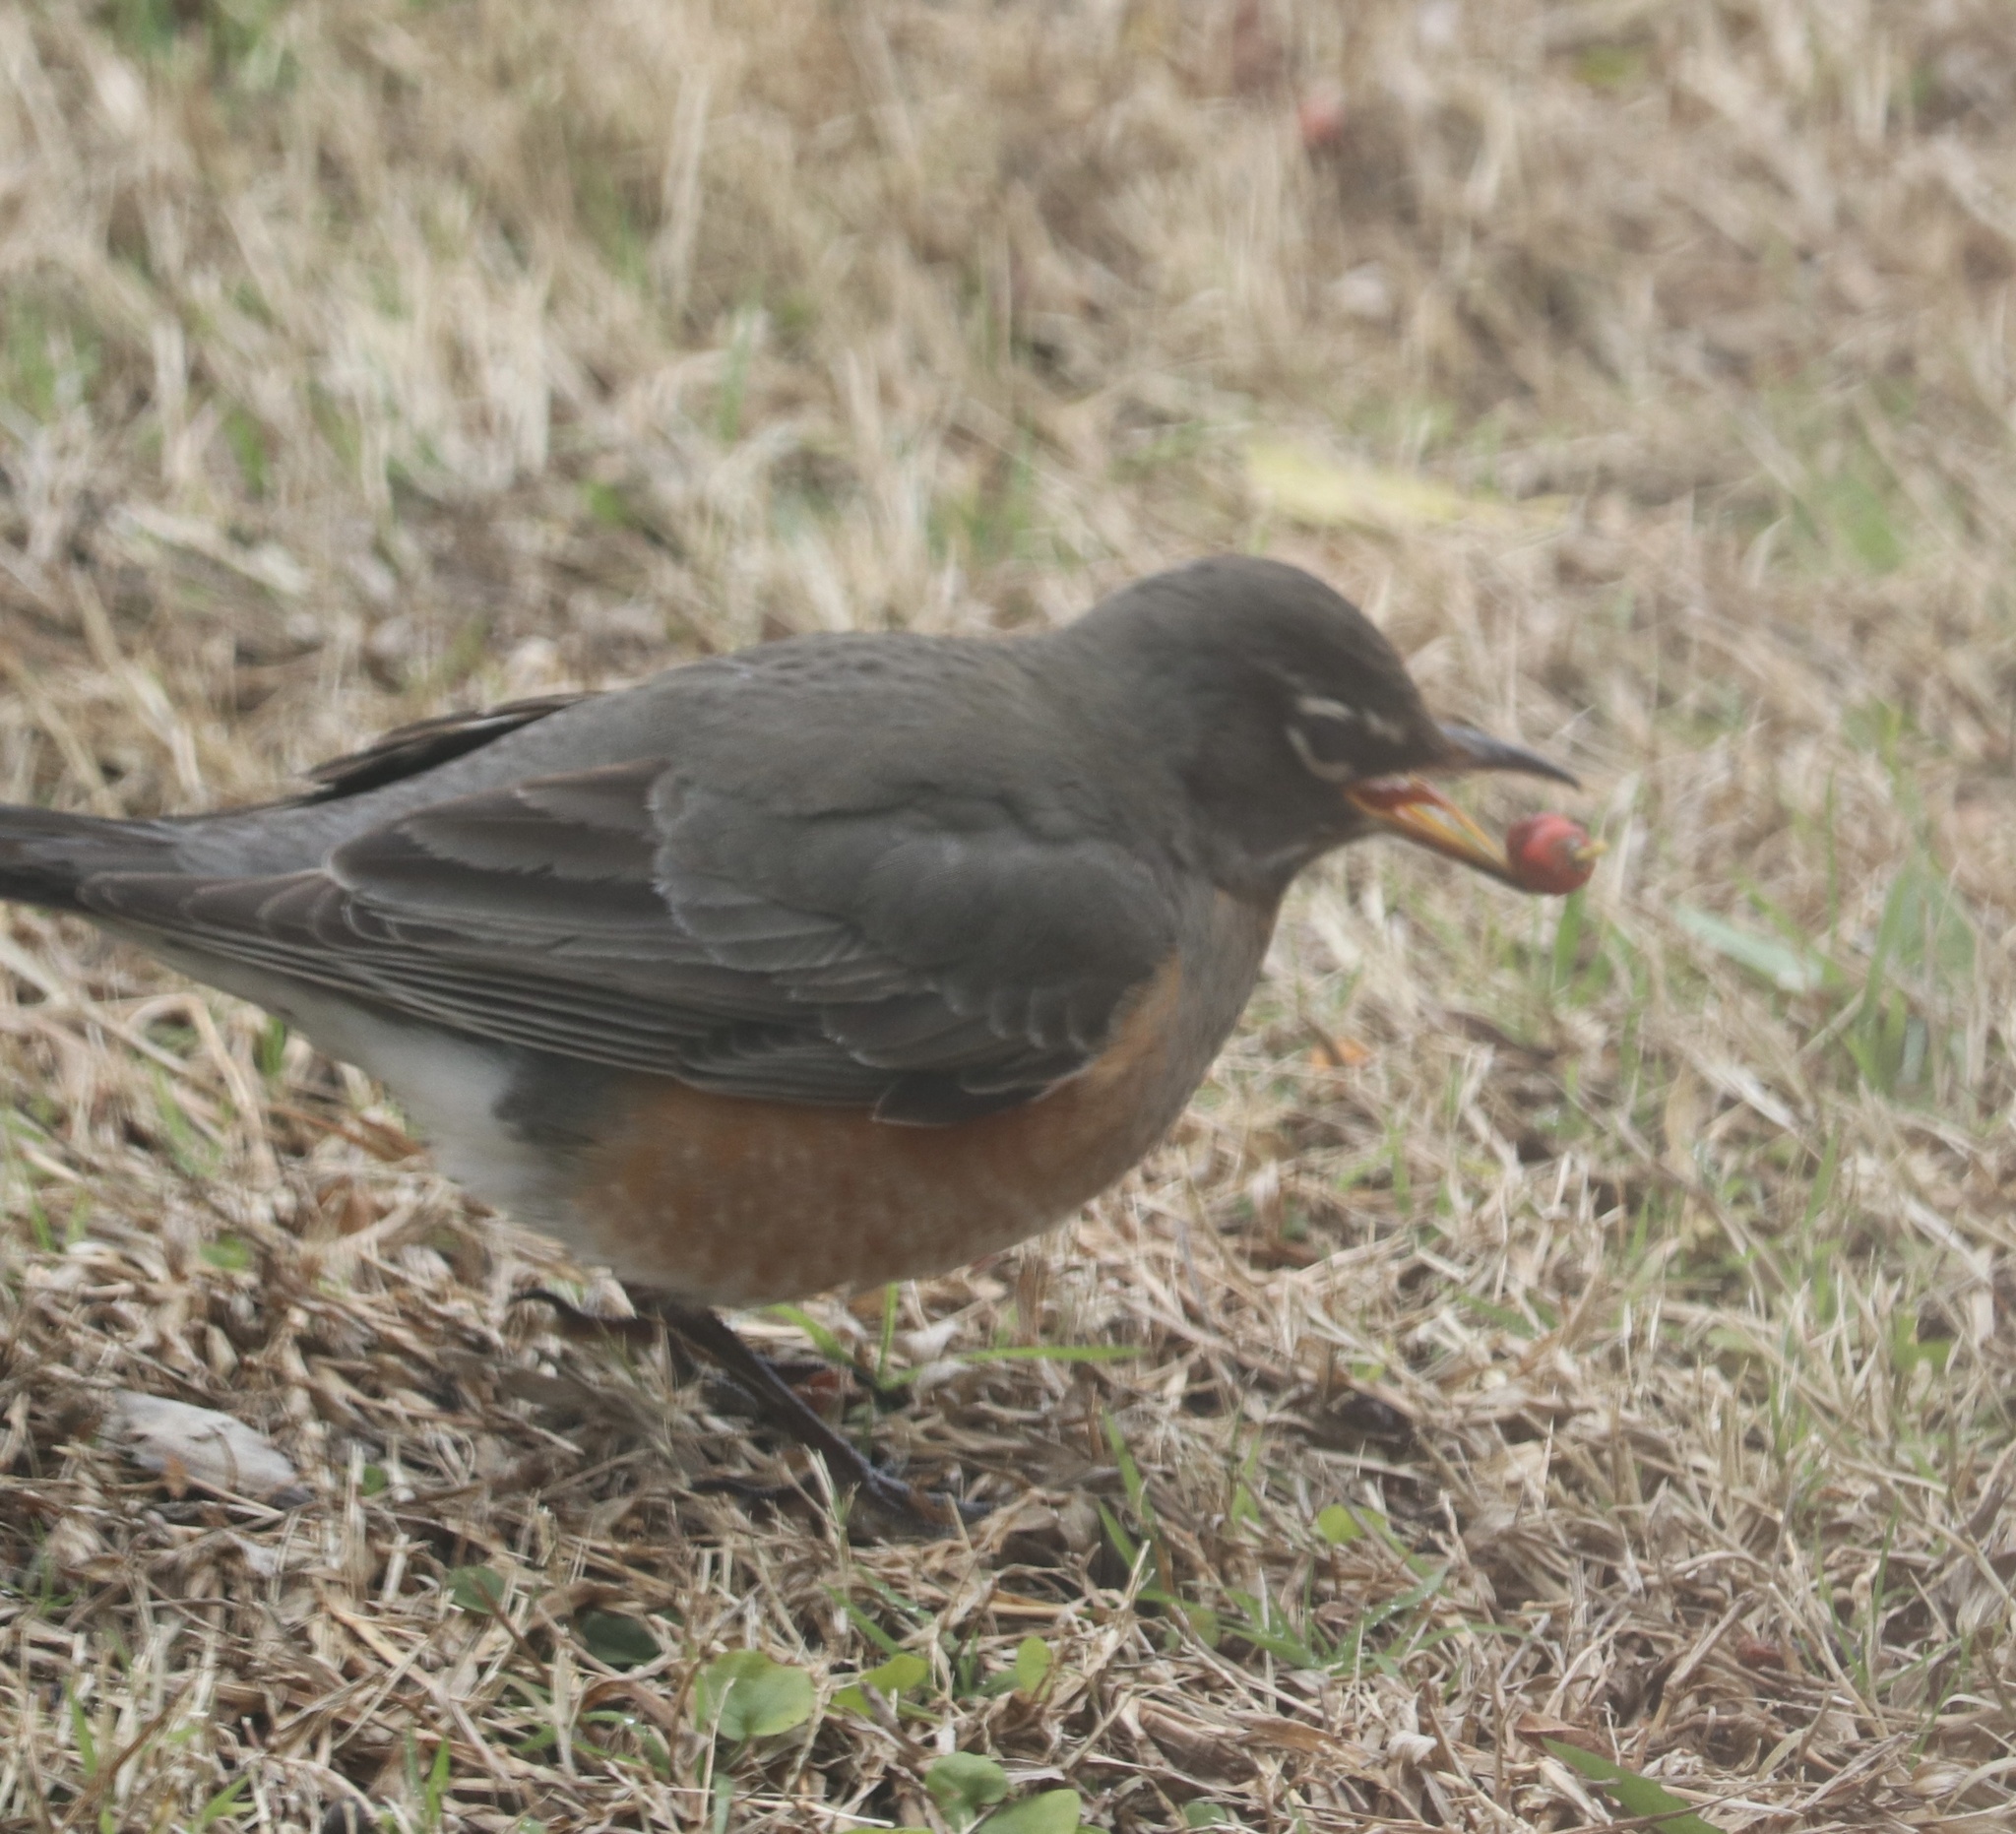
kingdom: Animalia
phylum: Chordata
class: Aves
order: Passeriformes
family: Turdidae
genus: Turdus
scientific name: Turdus migratorius
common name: American robin
